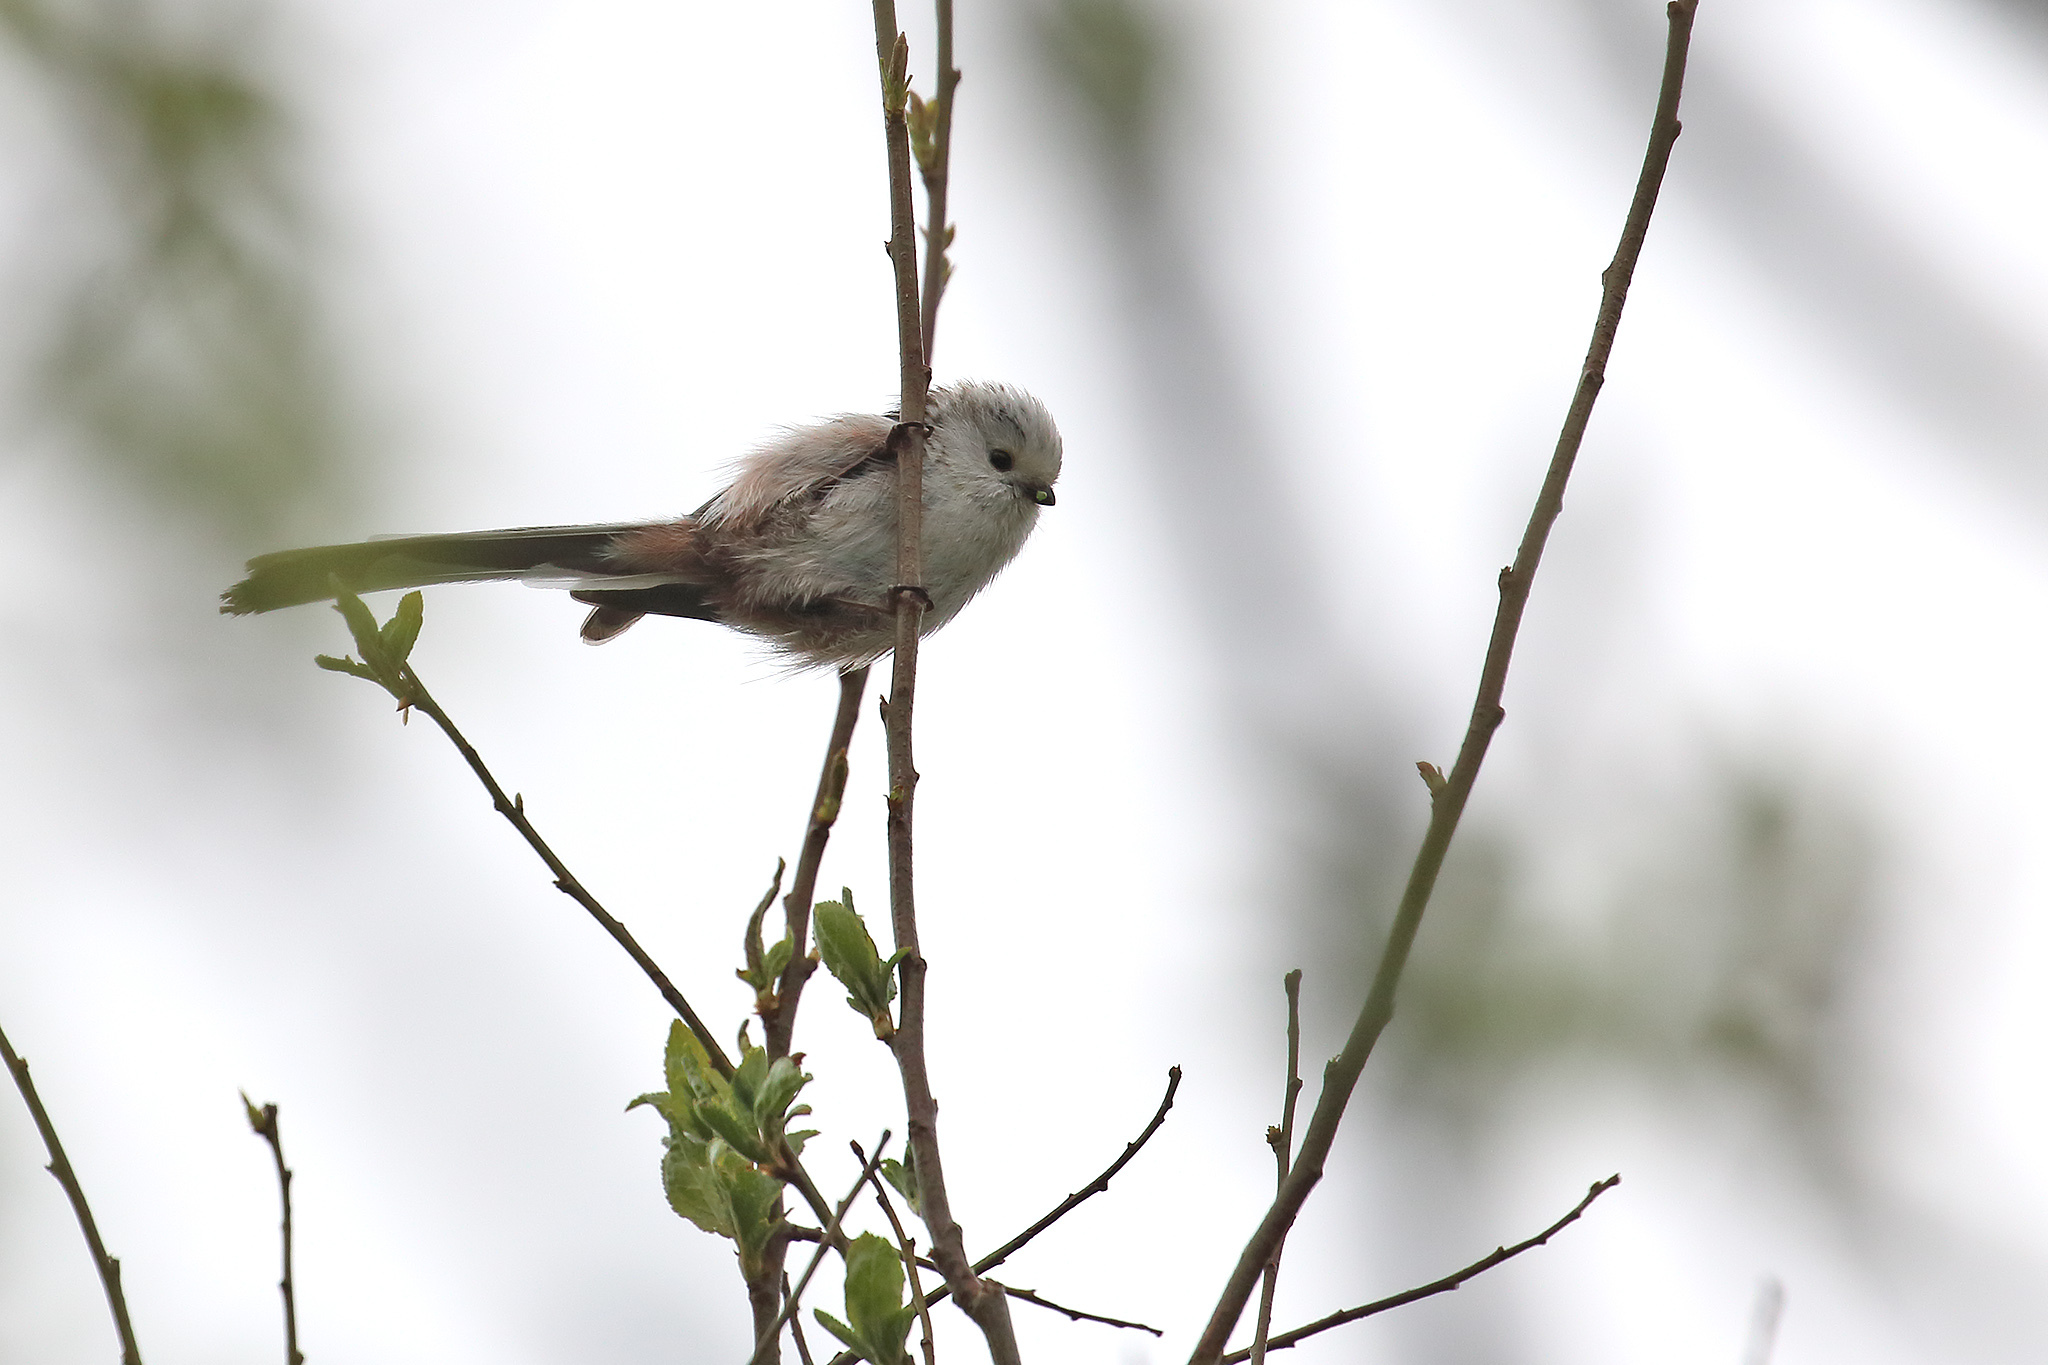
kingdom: Animalia
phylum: Chordata
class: Aves
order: Passeriformes
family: Aegithalidae
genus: Aegithalos
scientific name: Aegithalos caudatus
